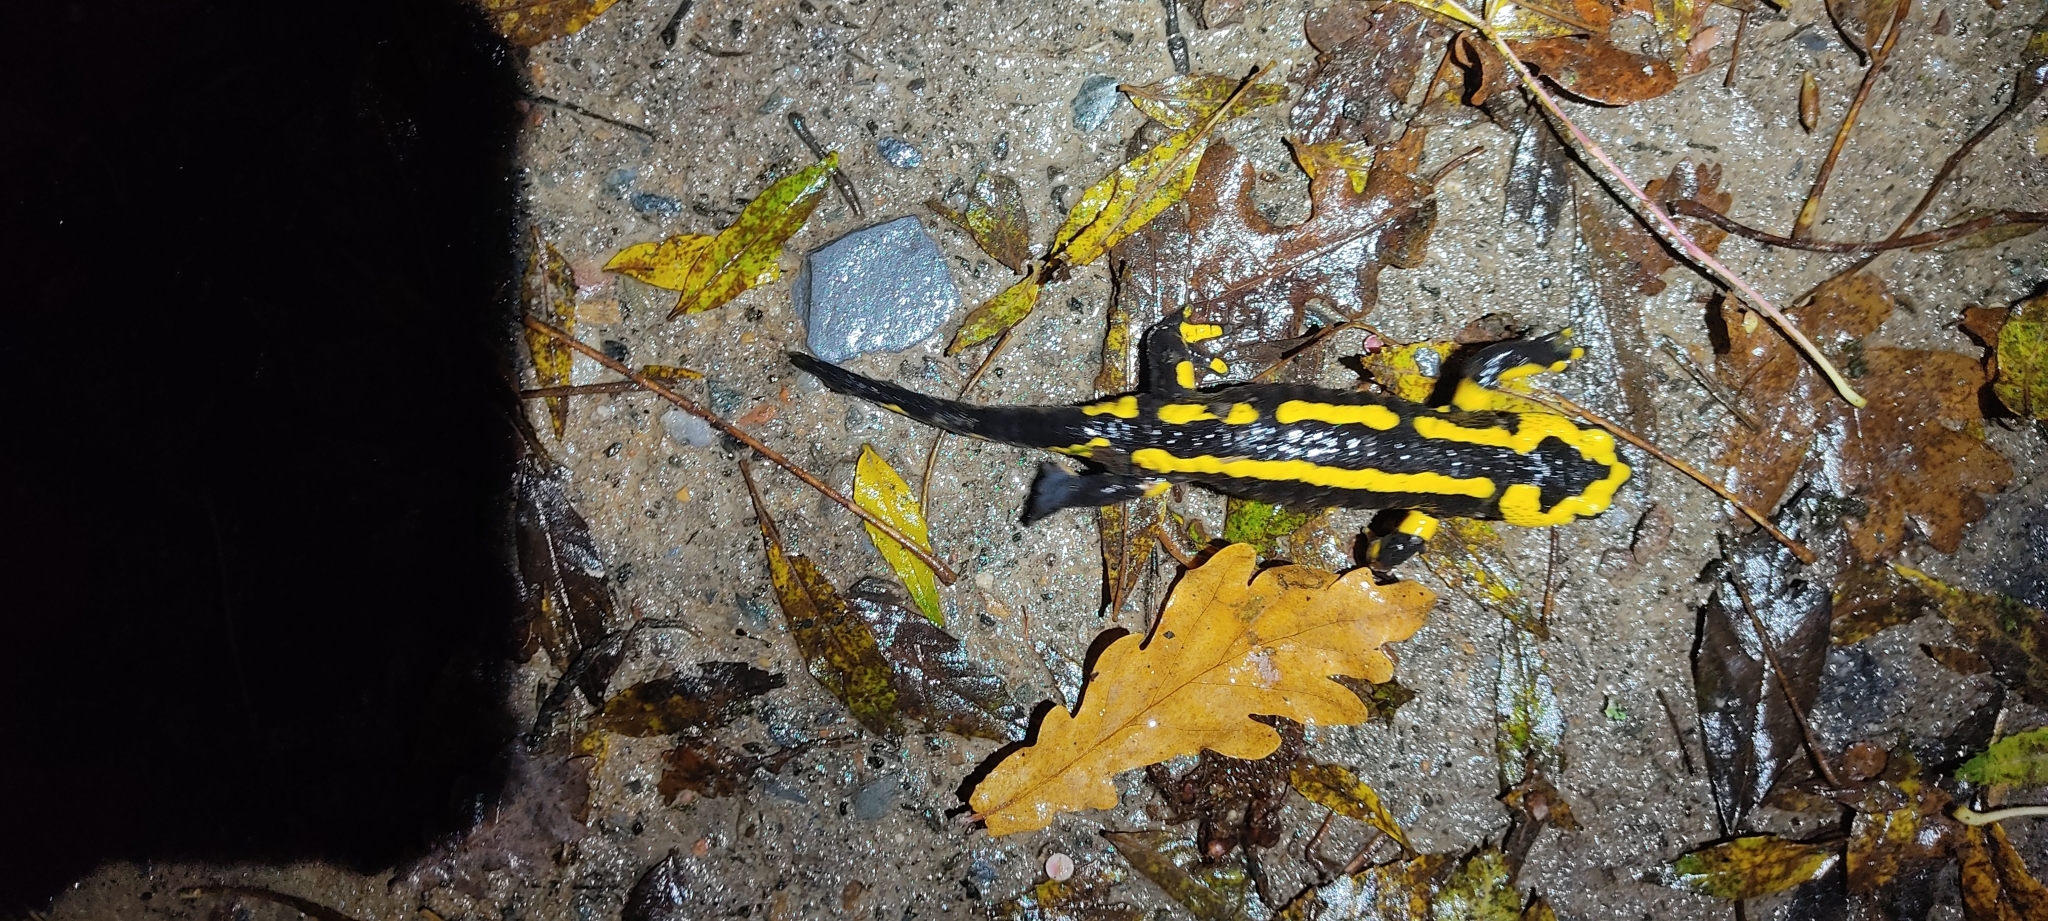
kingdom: Animalia
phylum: Chordata
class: Amphibia
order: Caudata
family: Salamandridae
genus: Salamandra
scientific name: Salamandra salamandra
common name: Fire salamander
